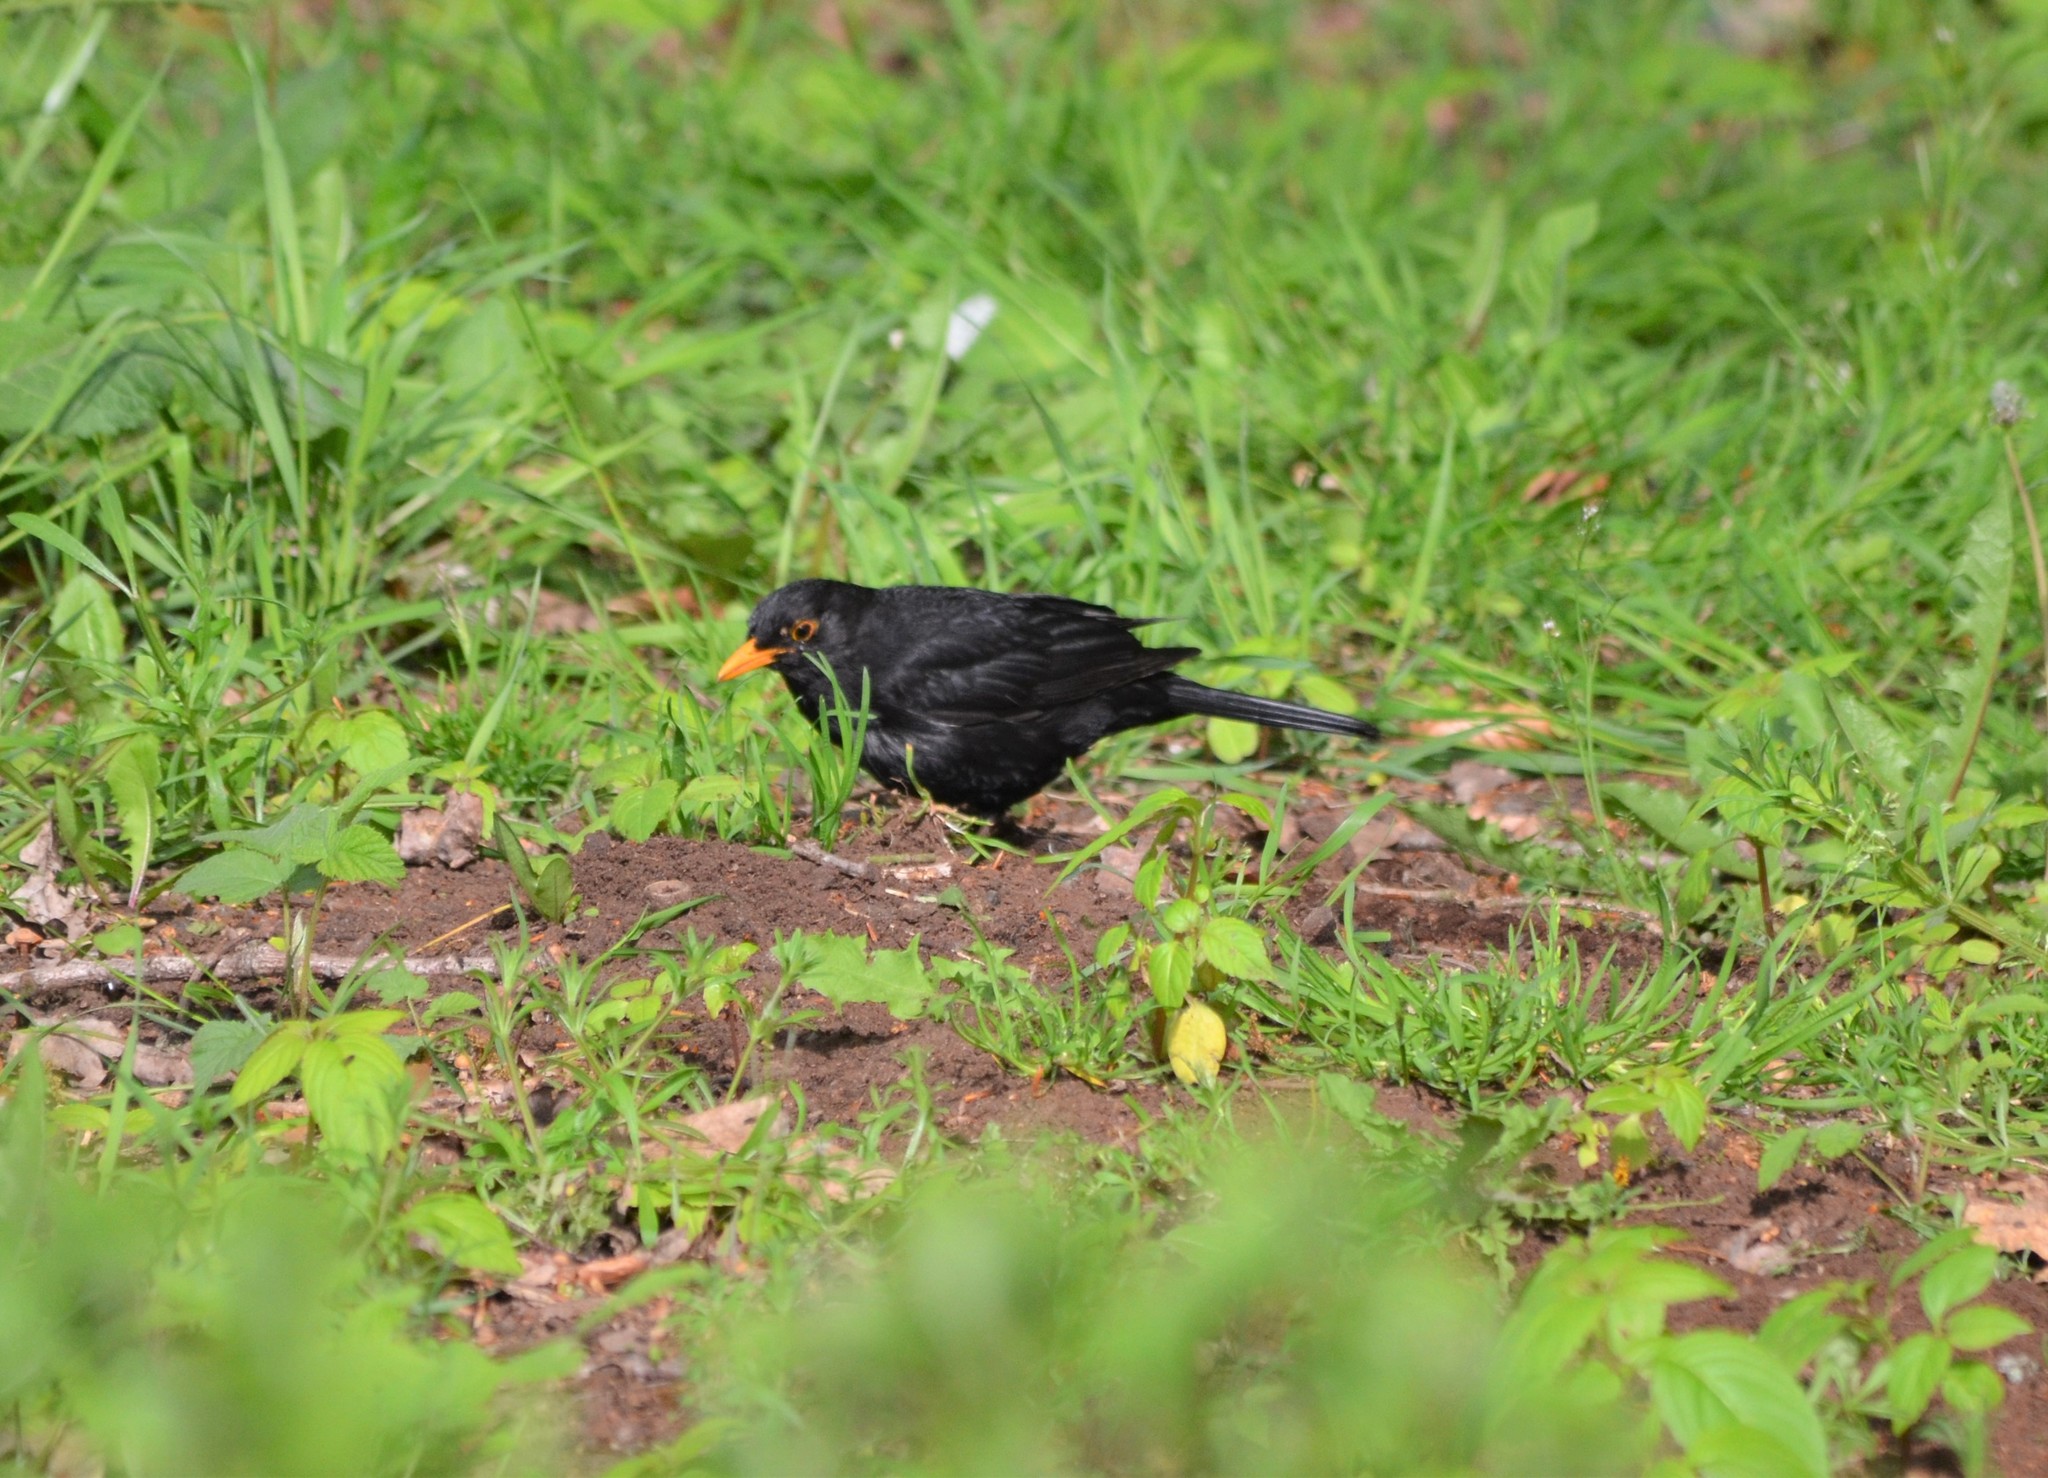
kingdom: Animalia
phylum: Chordata
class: Aves
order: Passeriformes
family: Turdidae
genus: Turdus
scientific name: Turdus merula
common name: Common blackbird
